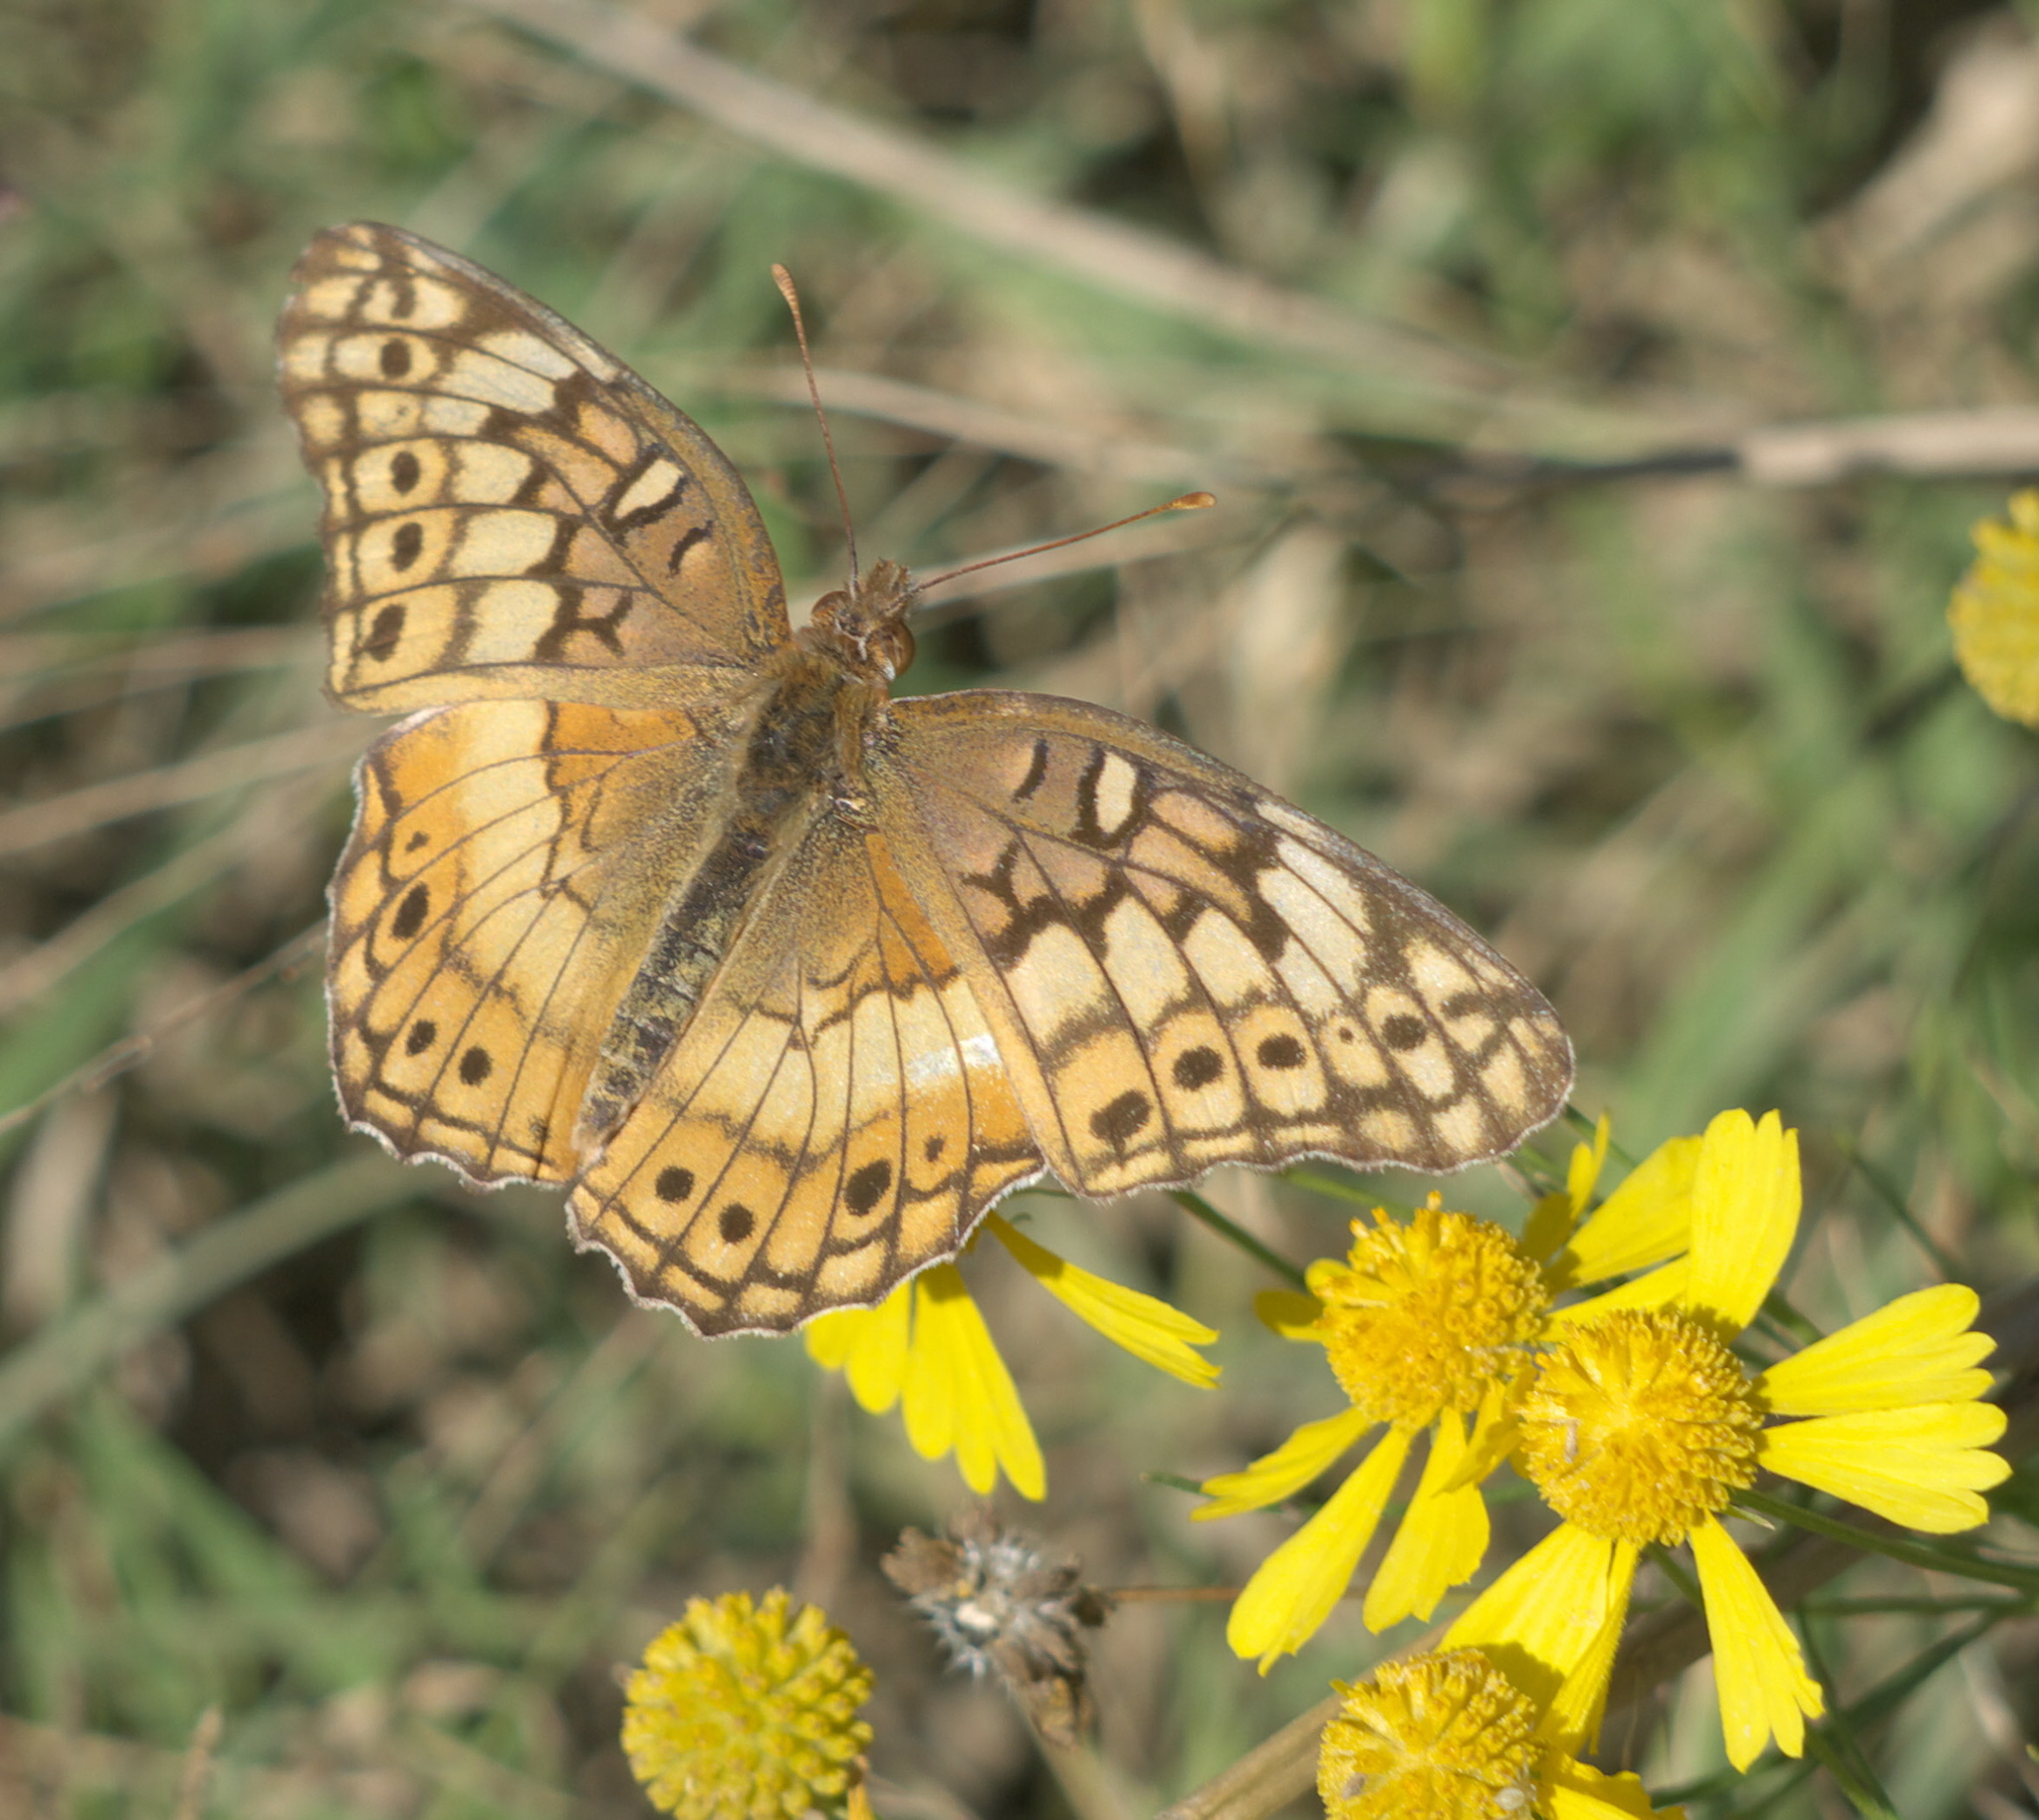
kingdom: Animalia
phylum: Arthropoda
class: Insecta
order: Lepidoptera
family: Nymphalidae
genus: Euptoieta
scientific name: Euptoieta claudia
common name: Variegated fritillary
